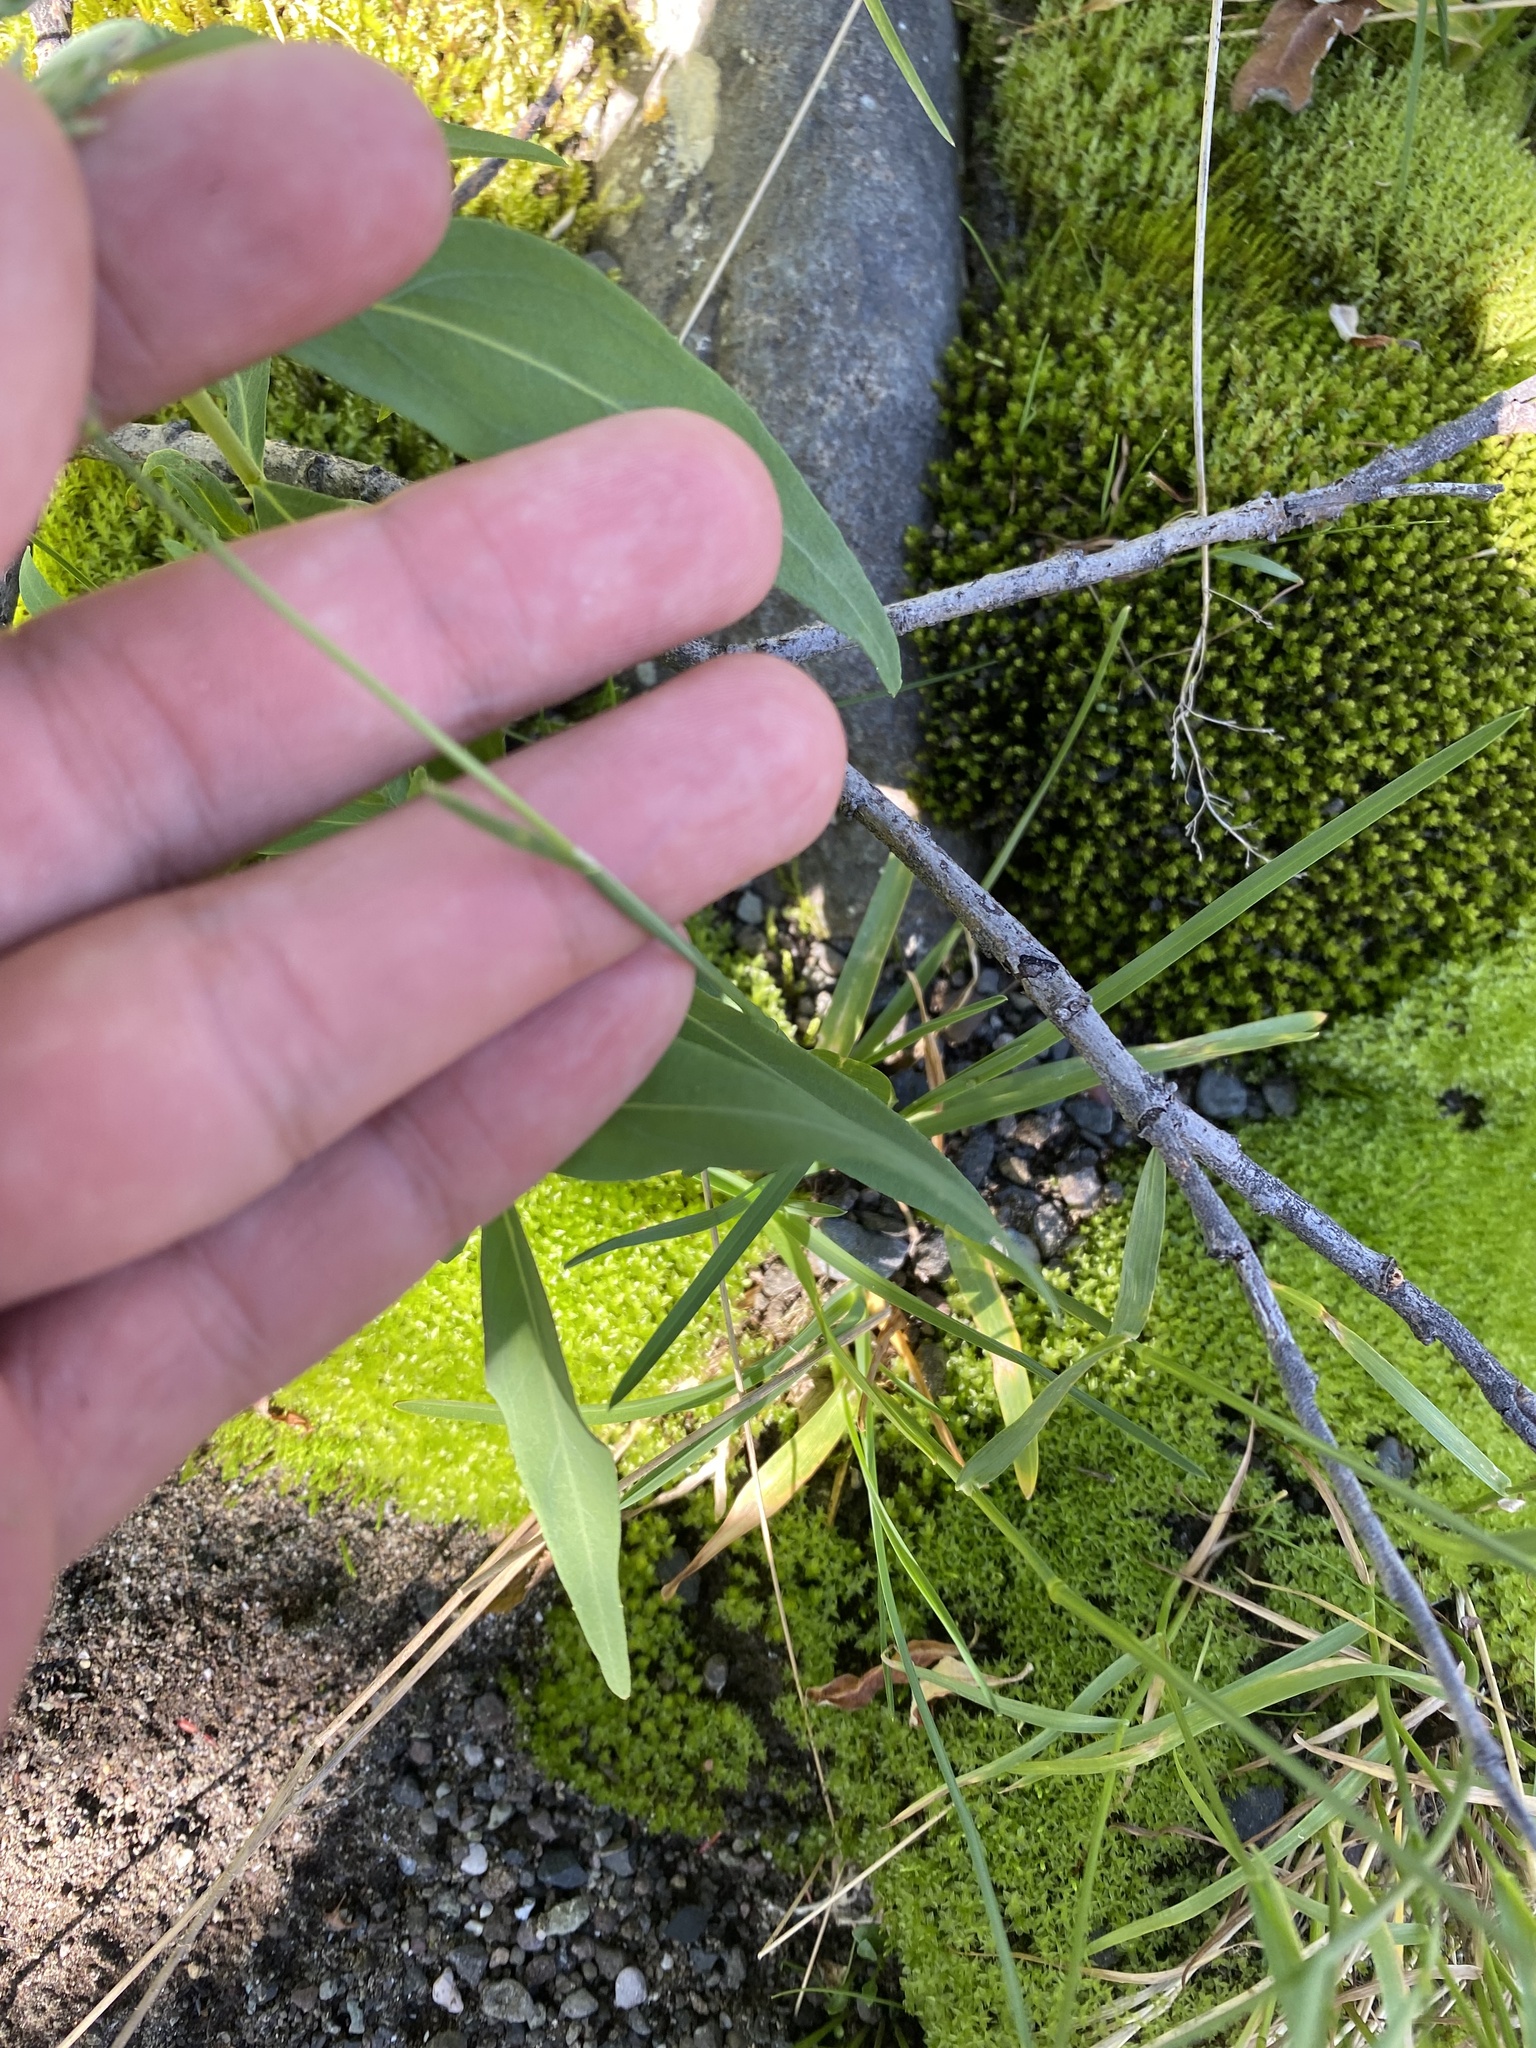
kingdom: Plantae
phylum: Tracheophyta
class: Liliopsida
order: Poales
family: Poaceae
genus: Poa
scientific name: Poa alpina
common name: Alpine bluegrass
